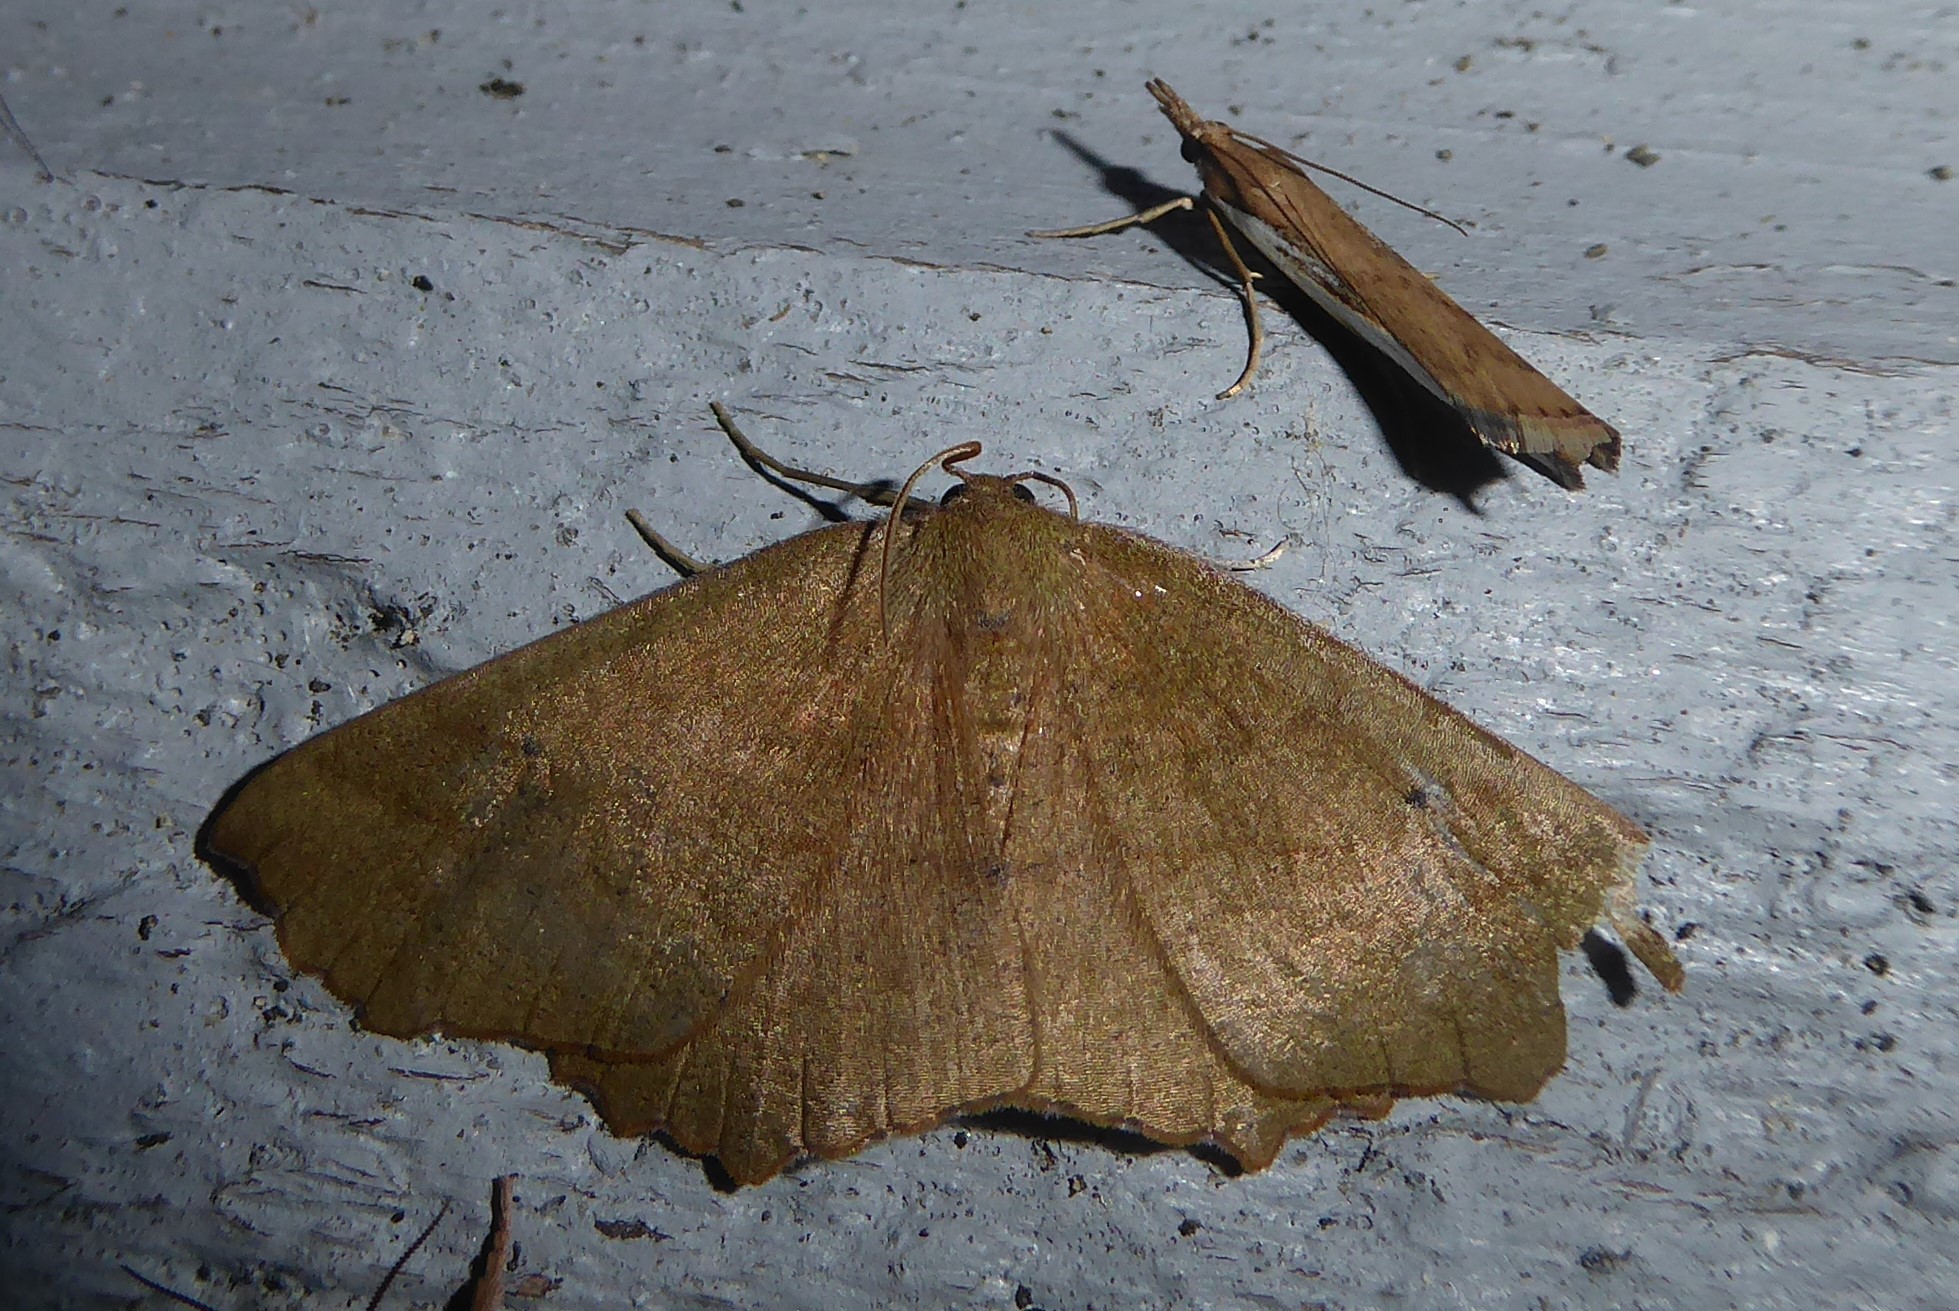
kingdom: Animalia
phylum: Arthropoda
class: Insecta
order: Lepidoptera
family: Geometridae
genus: Xyridacma
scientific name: Xyridacma alectoraria
